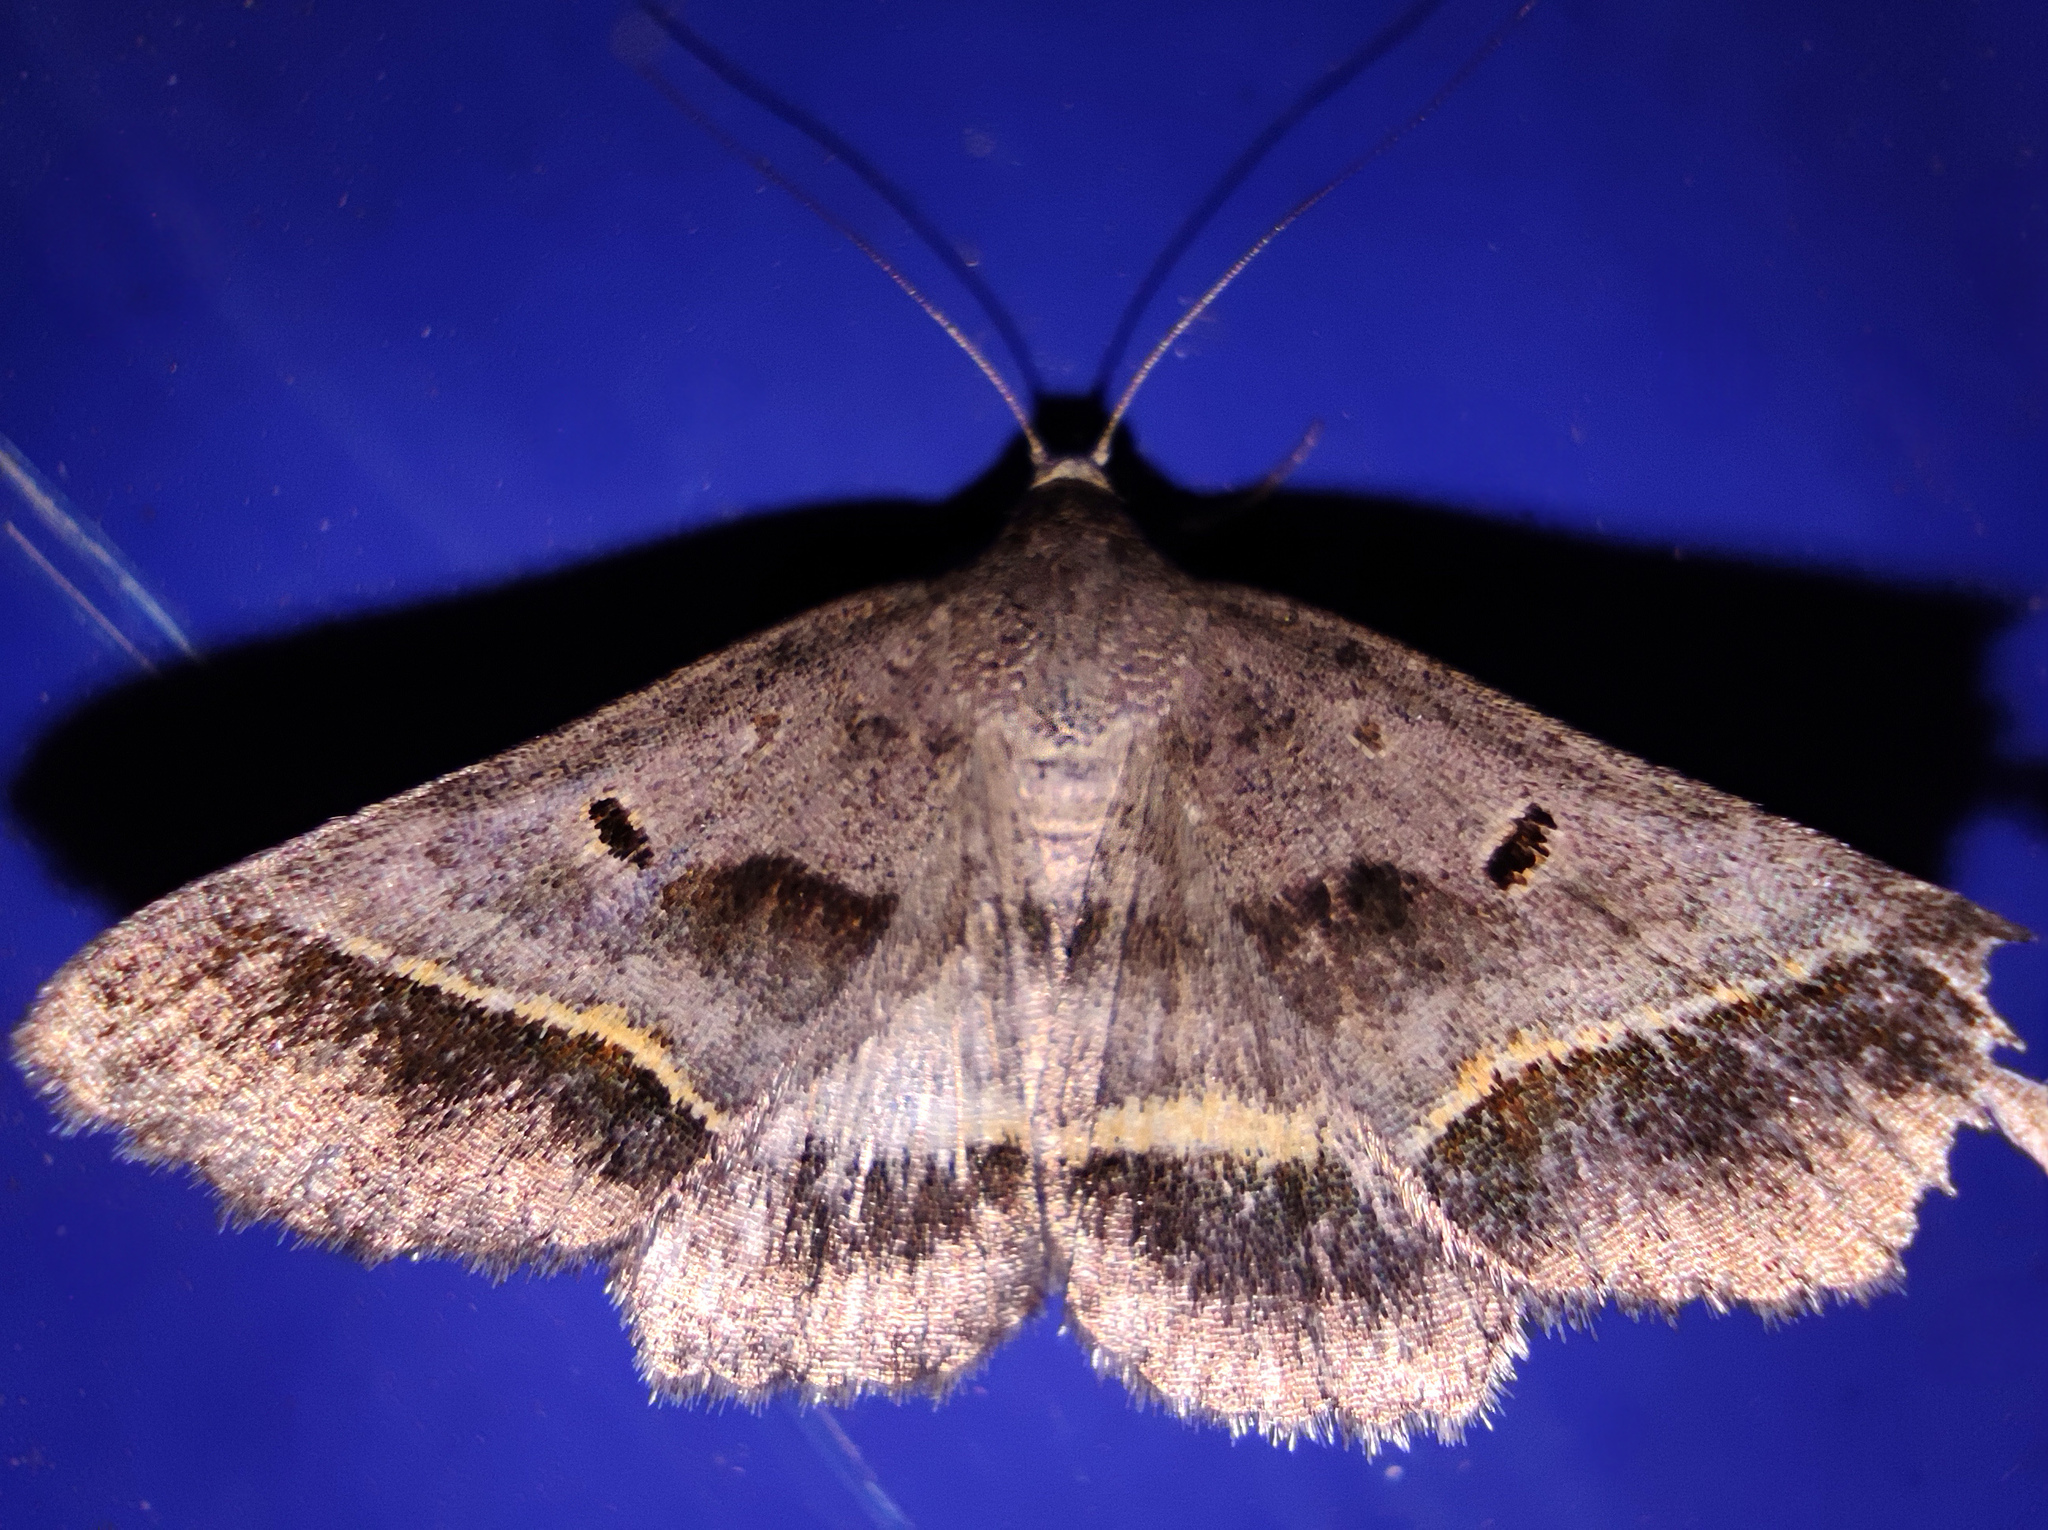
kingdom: Animalia
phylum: Arthropoda
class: Insecta
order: Lepidoptera
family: Erebidae
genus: Acantholipes
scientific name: Acantholipes regularis
